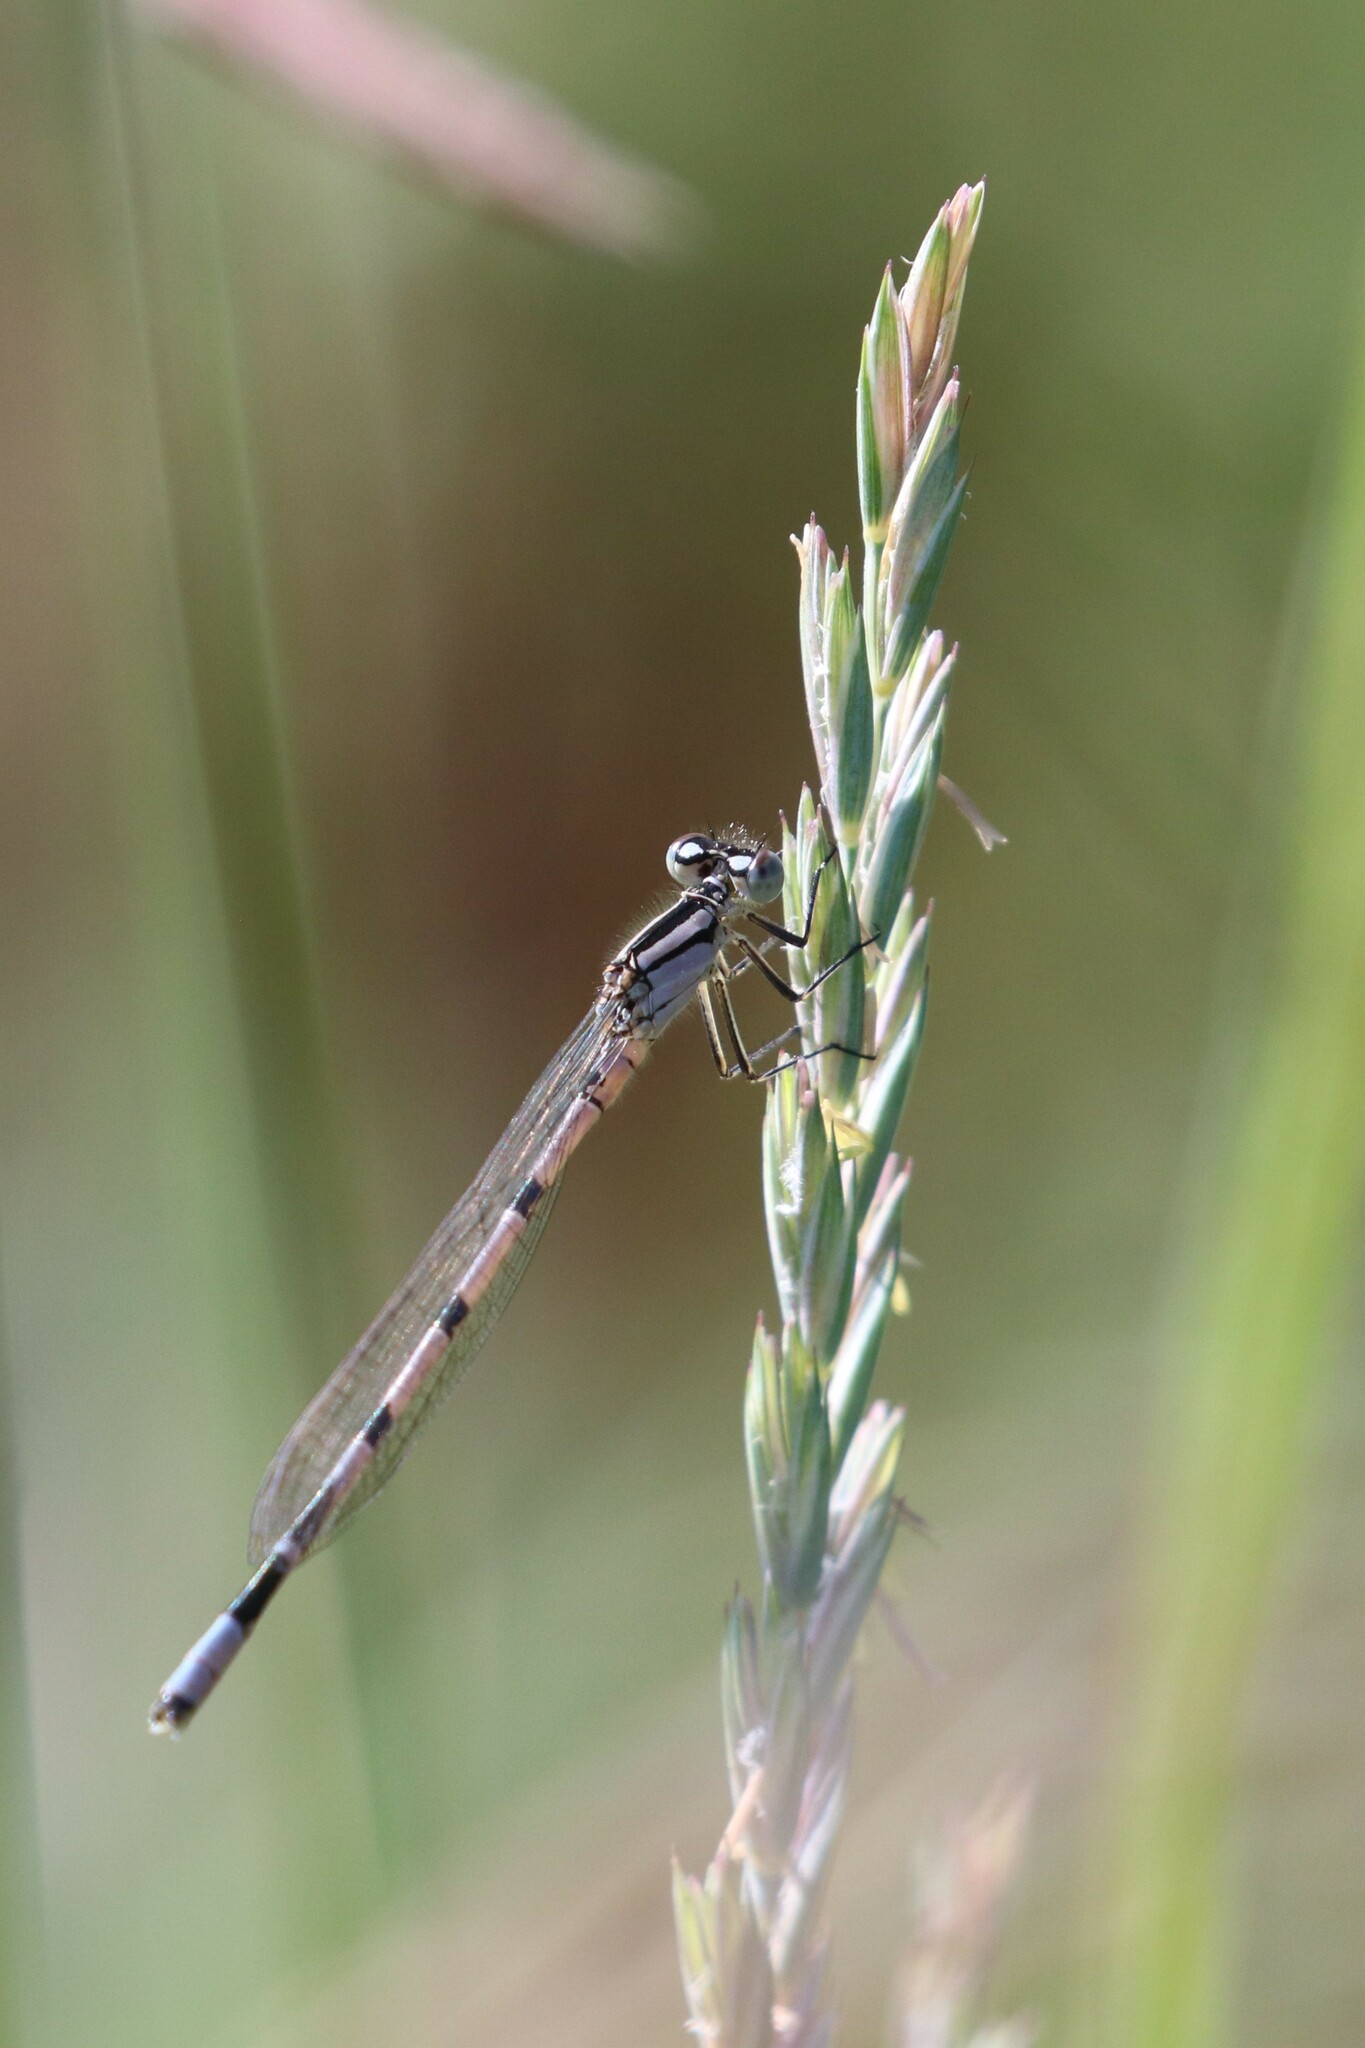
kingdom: Animalia
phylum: Arthropoda
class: Insecta
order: Odonata
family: Coenagrionidae
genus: Enallagma
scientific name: Enallagma cyathigerum
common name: Common blue damselfly
